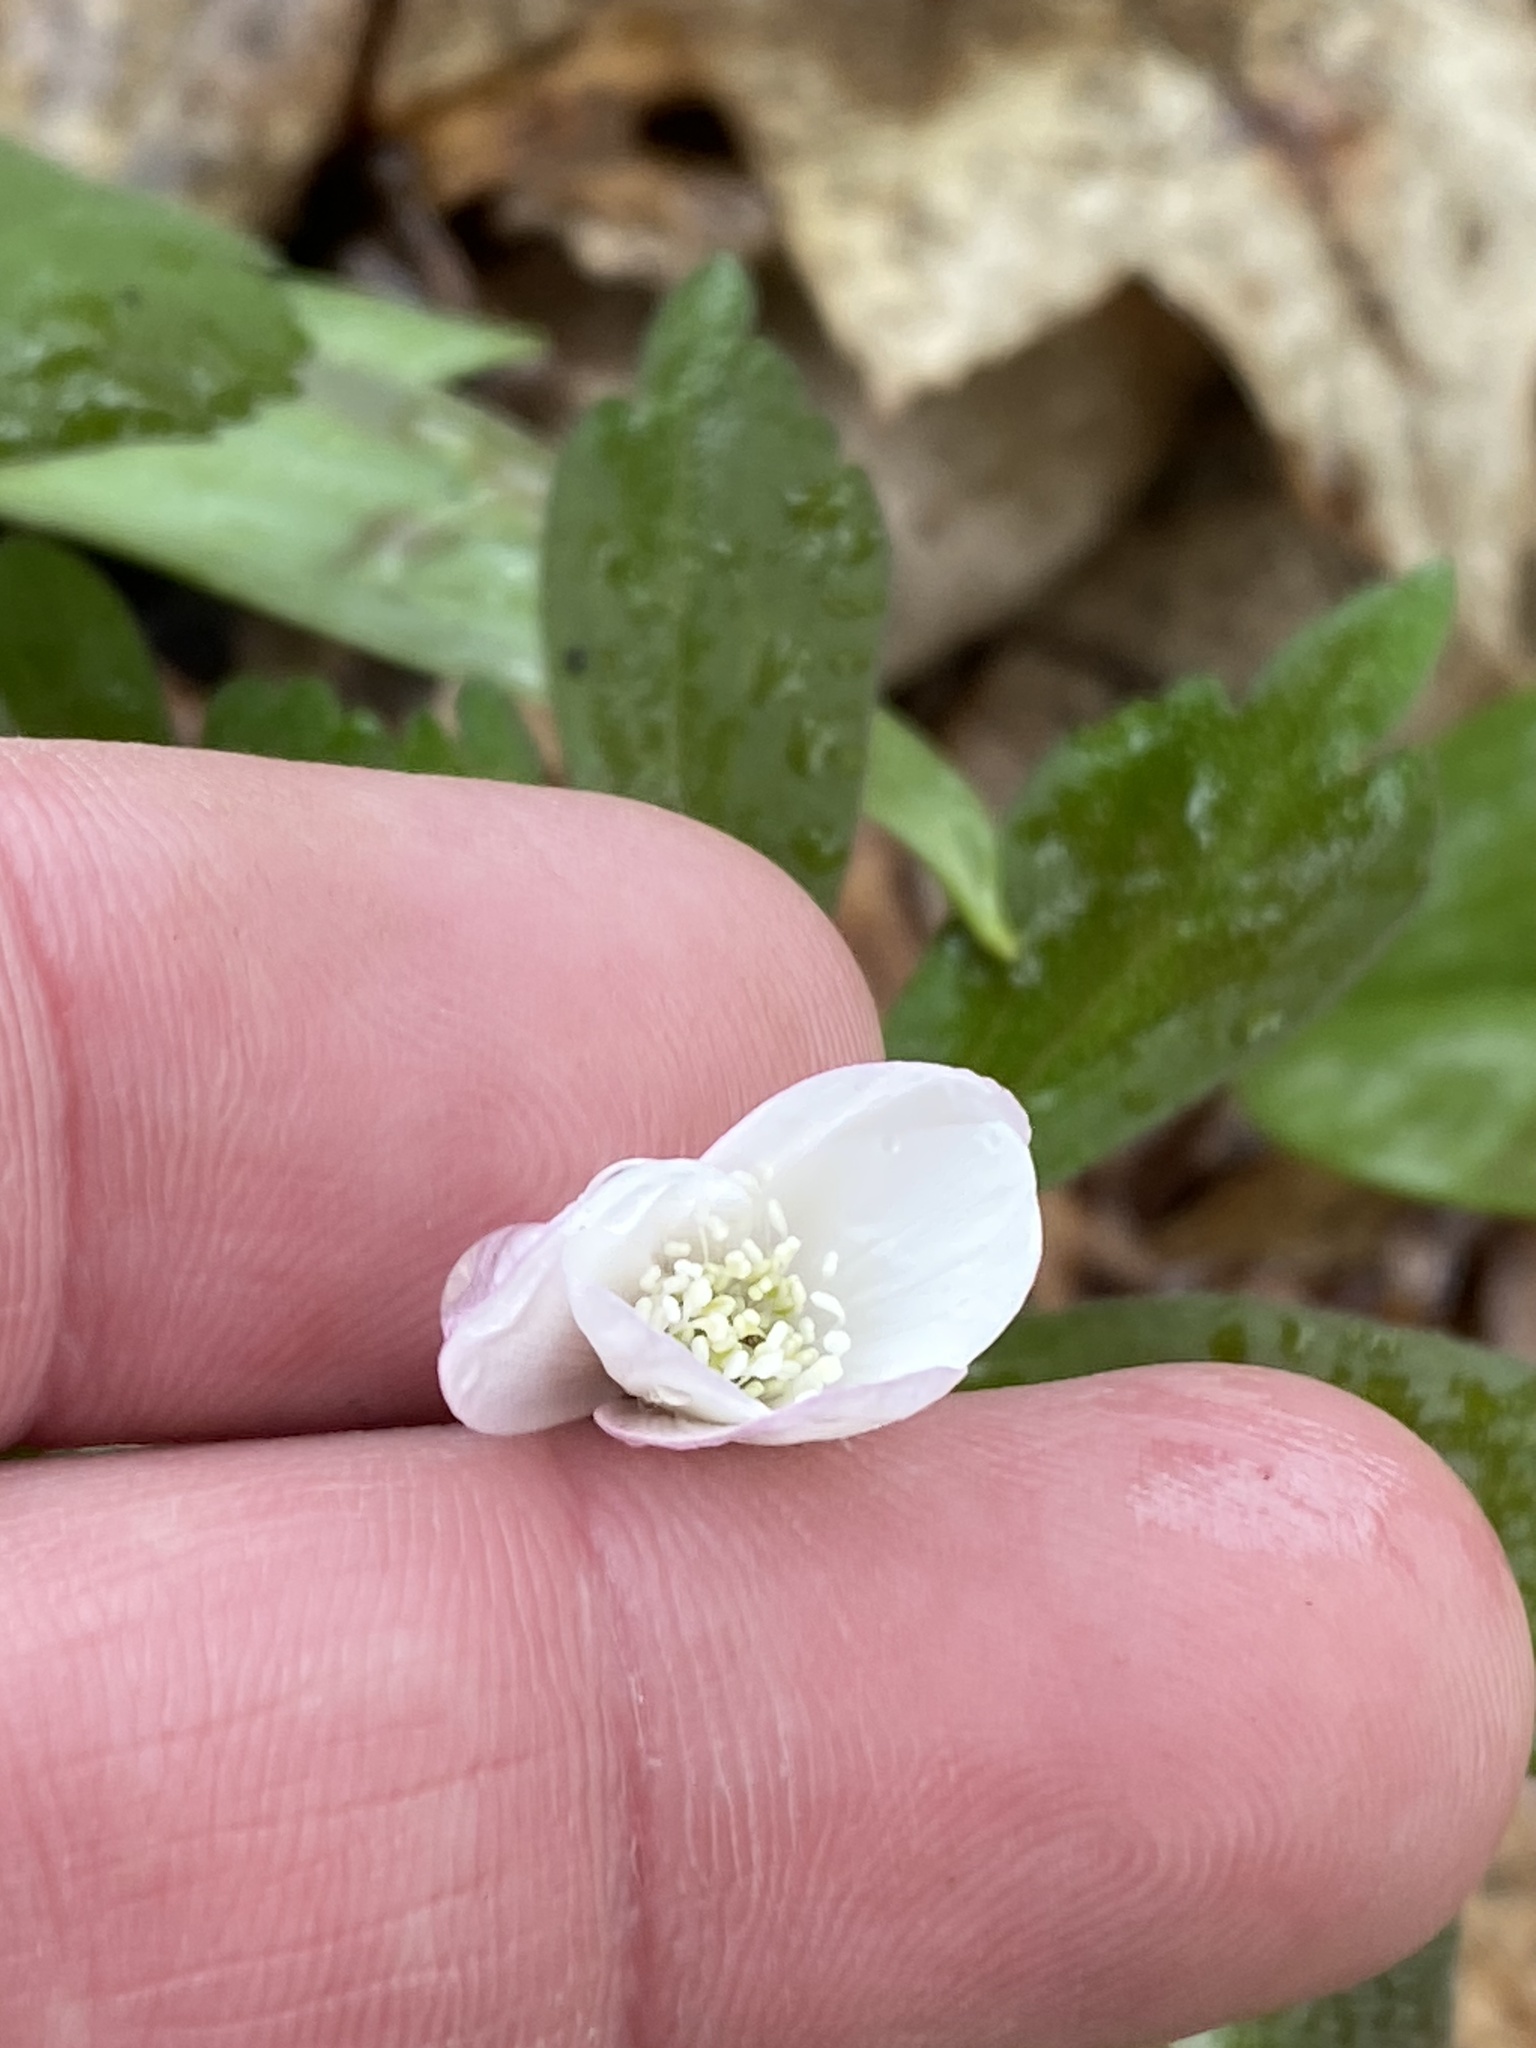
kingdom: Plantae
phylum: Tracheophyta
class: Magnoliopsida
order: Ranunculales
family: Ranunculaceae
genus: Anemone
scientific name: Anemone quinquefolia
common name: Wood anemone
